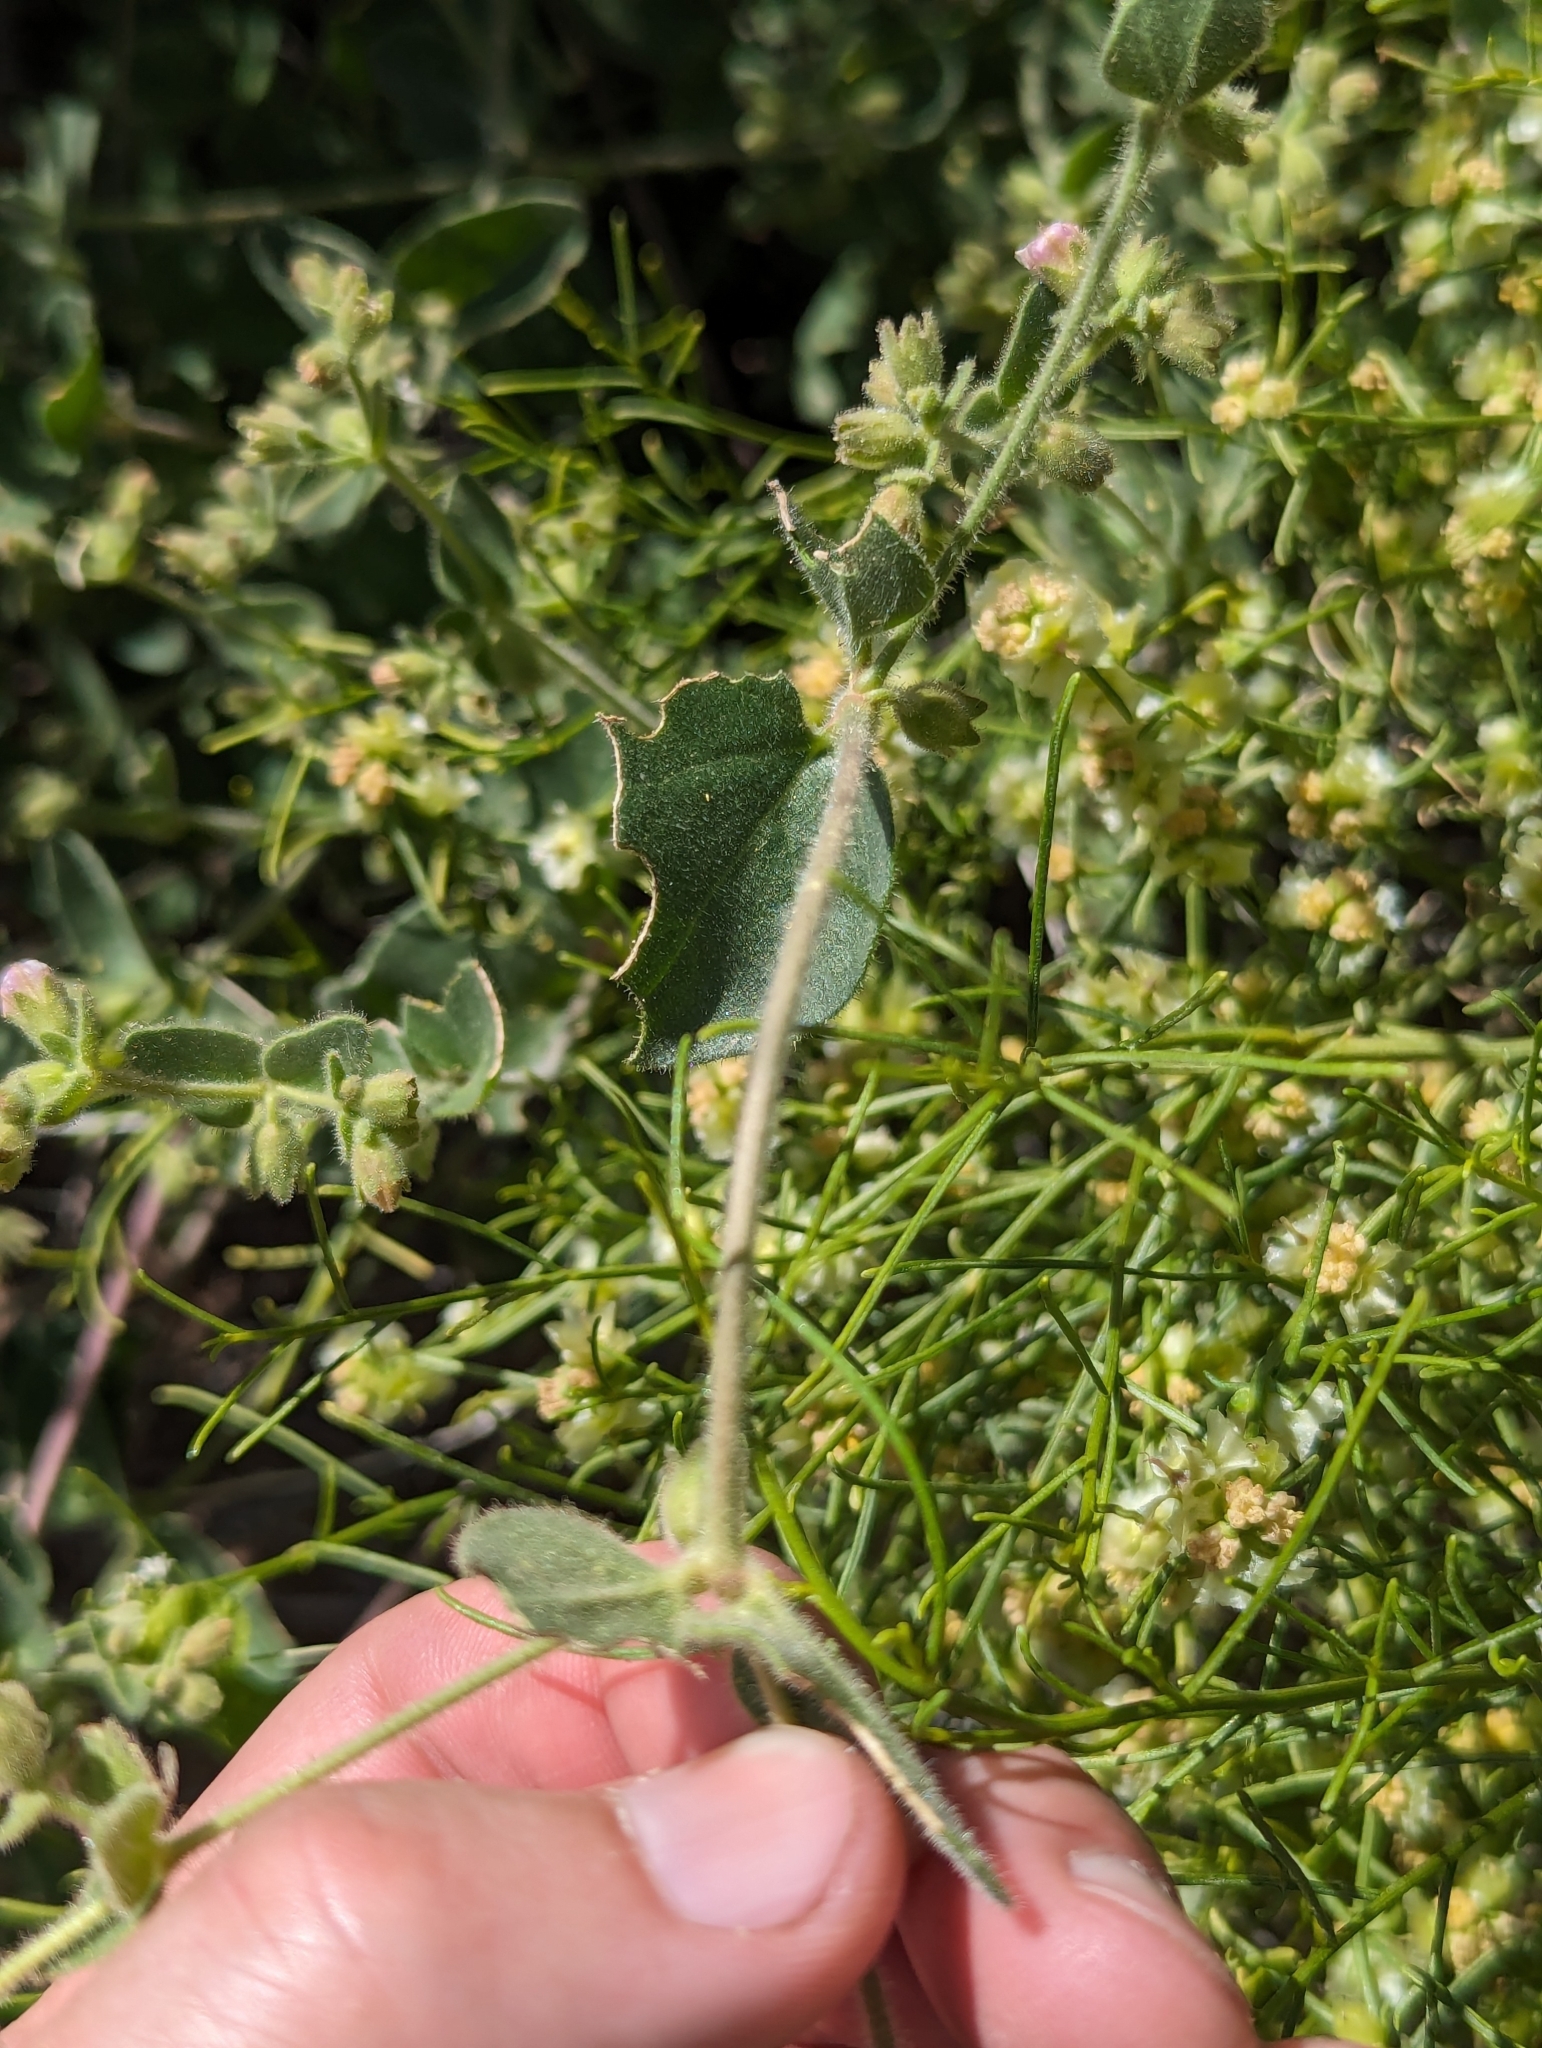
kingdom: Plantae
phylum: Tracheophyta
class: Magnoliopsida
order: Caryophyllales
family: Nyctaginaceae
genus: Mirabilis
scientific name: Mirabilis laevis
